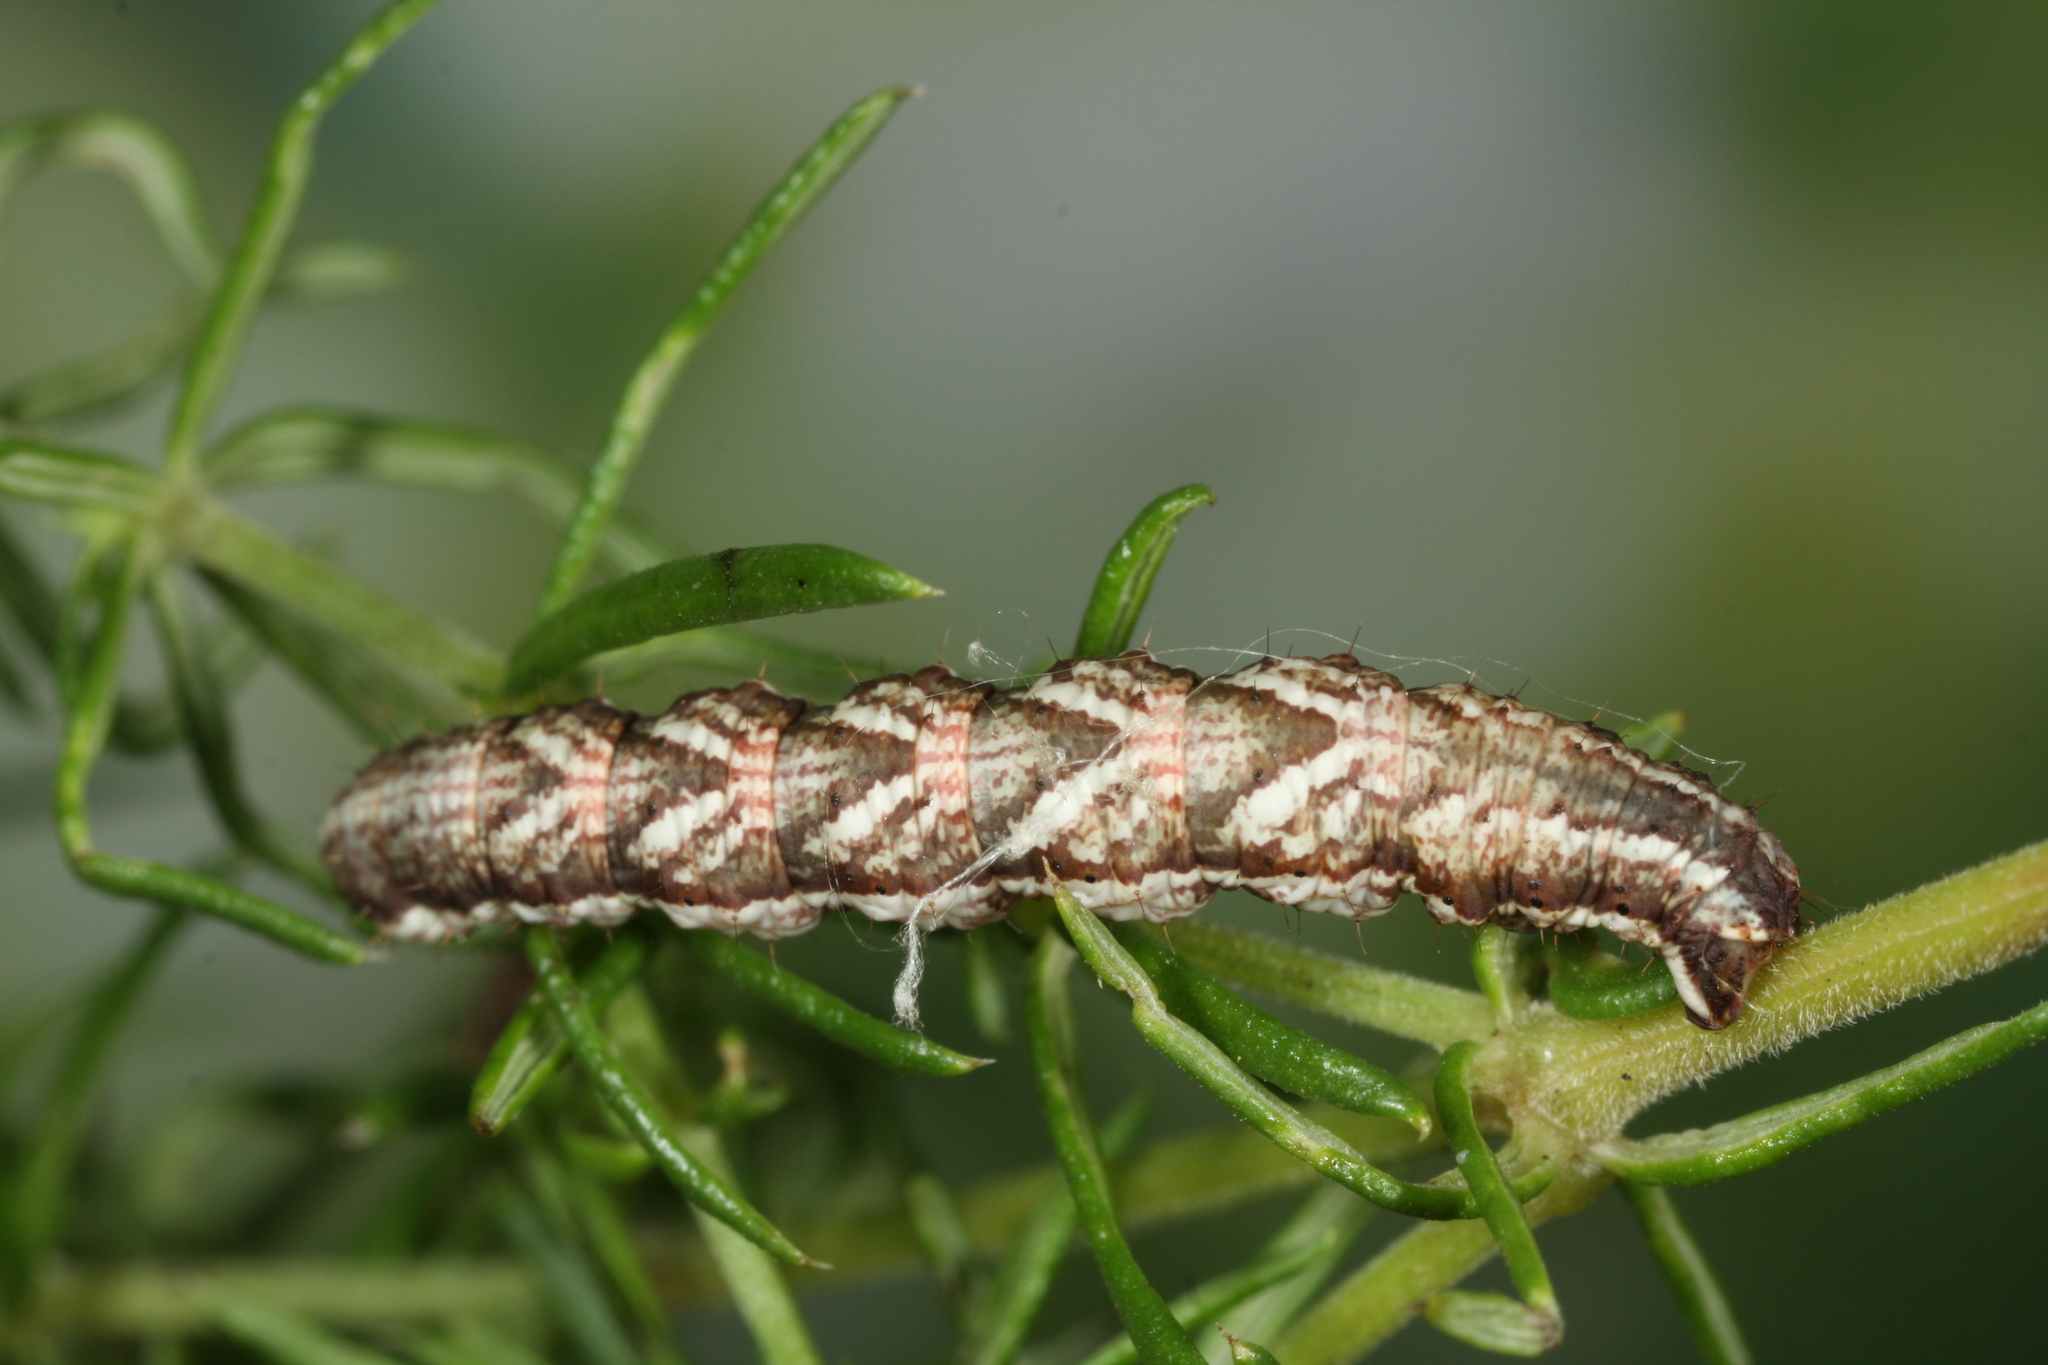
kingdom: Animalia
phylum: Arthropoda
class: Insecta
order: Lepidoptera
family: Geometridae
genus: Cosmorhoe
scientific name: Cosmorhoe ocellata
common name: Purple bar
